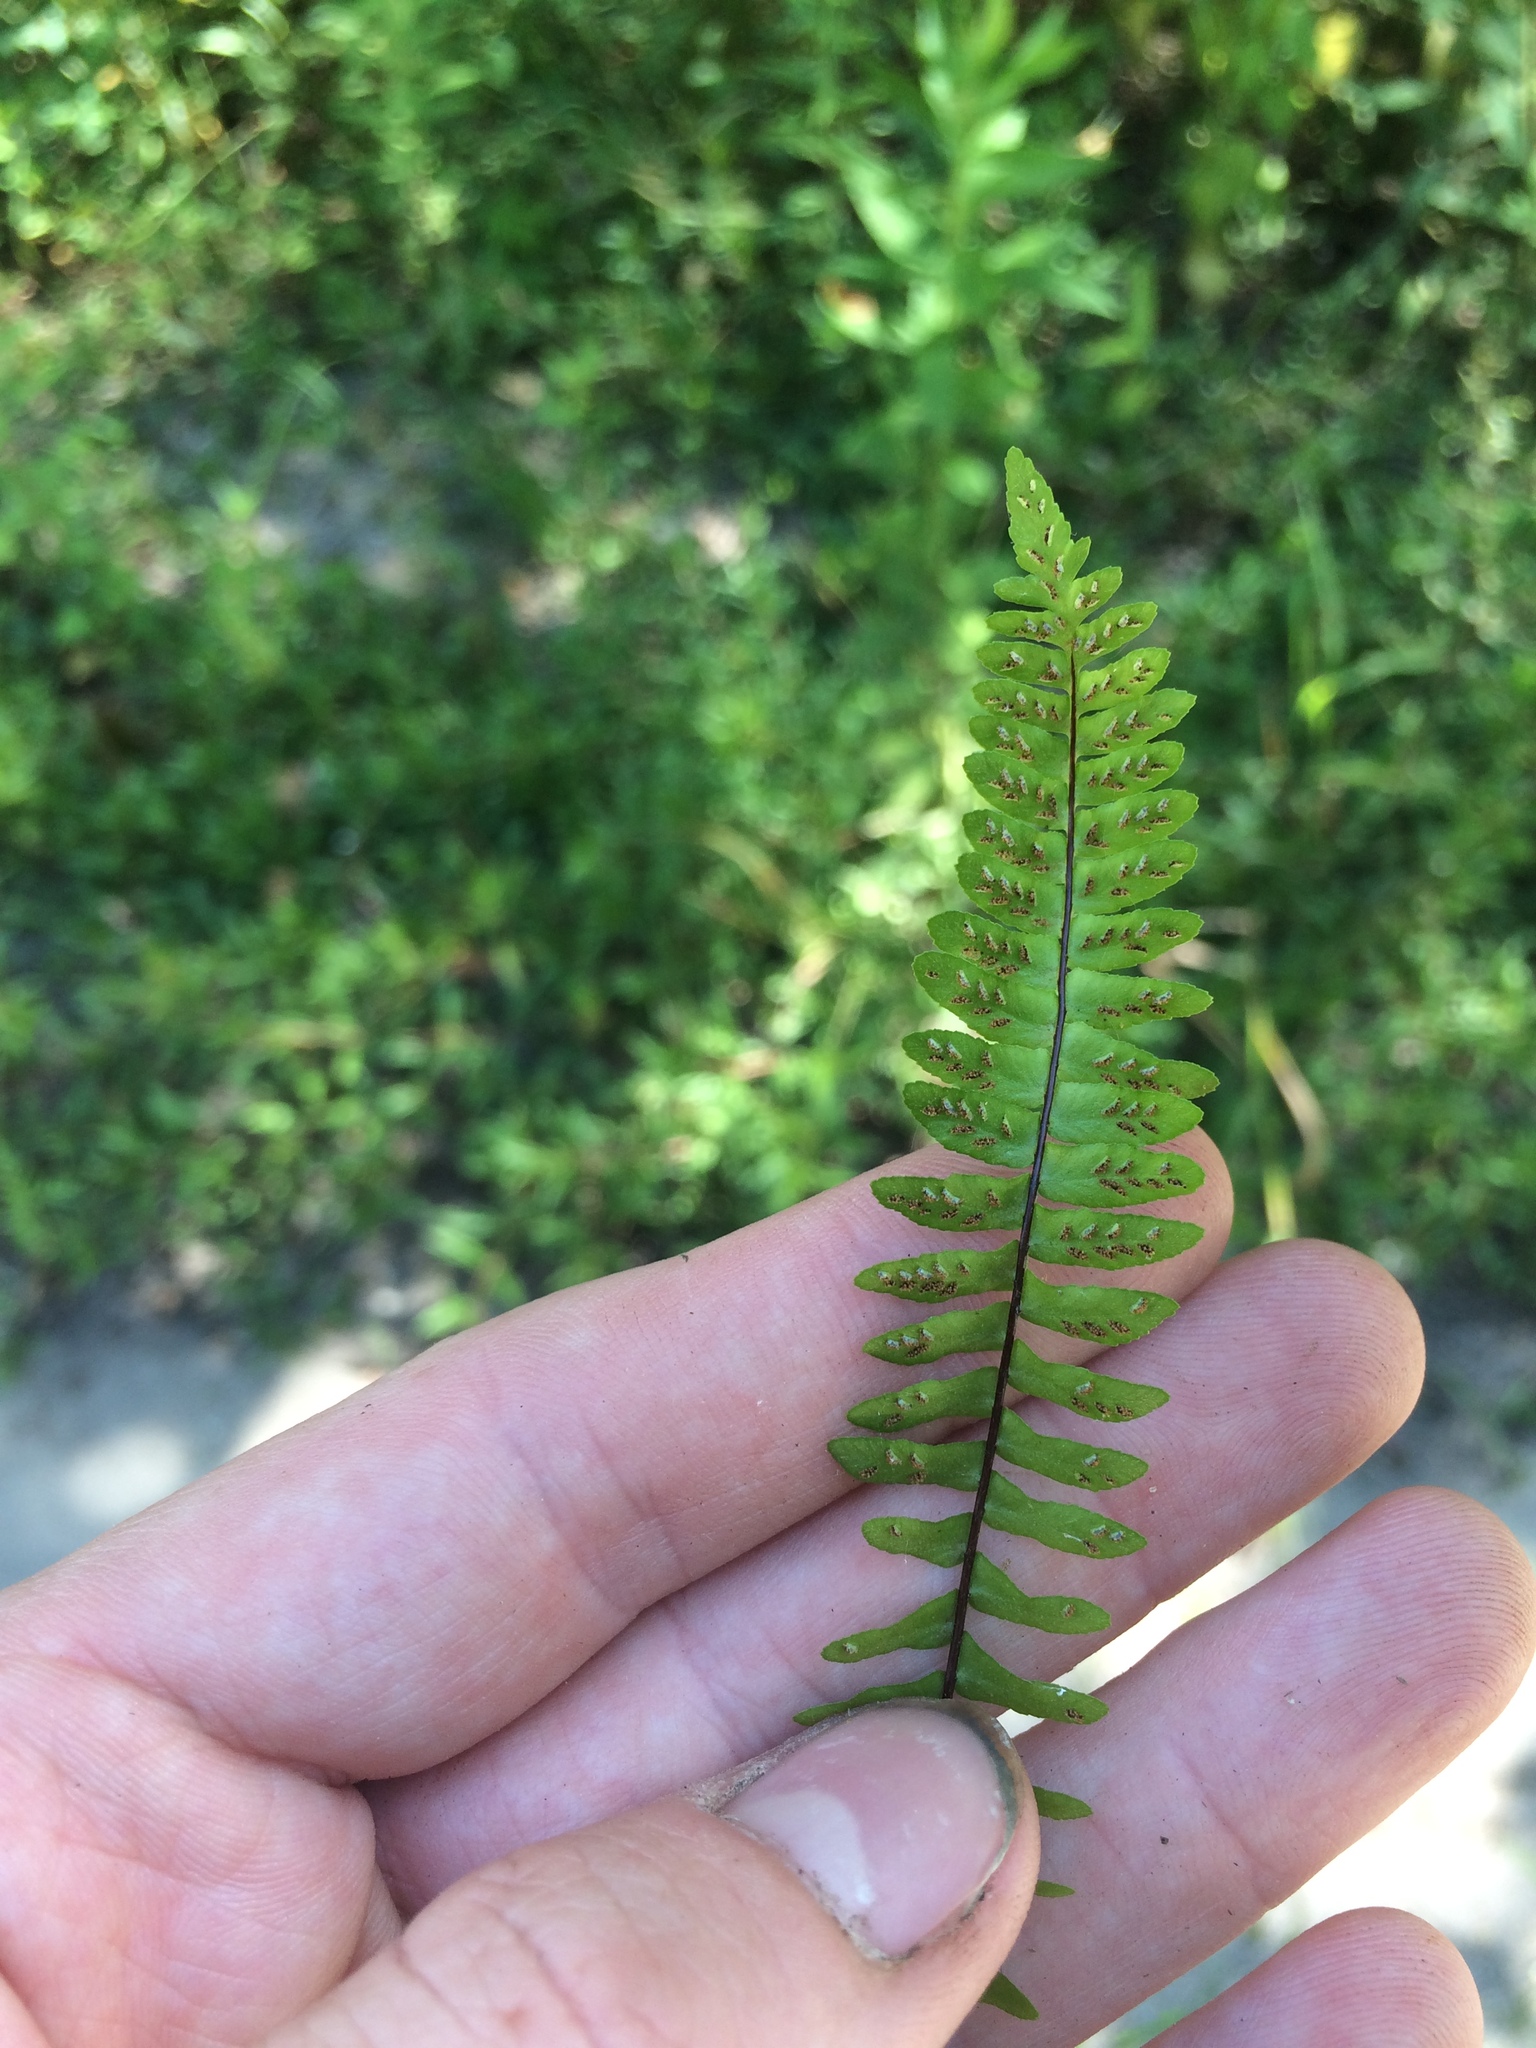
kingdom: Plantae
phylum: Tracheophyta
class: Polypodiopsida
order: Polypodiales
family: Aspleniaceae
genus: Asplenium
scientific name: Asplenium platyneuron
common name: Ebony spleenwort
